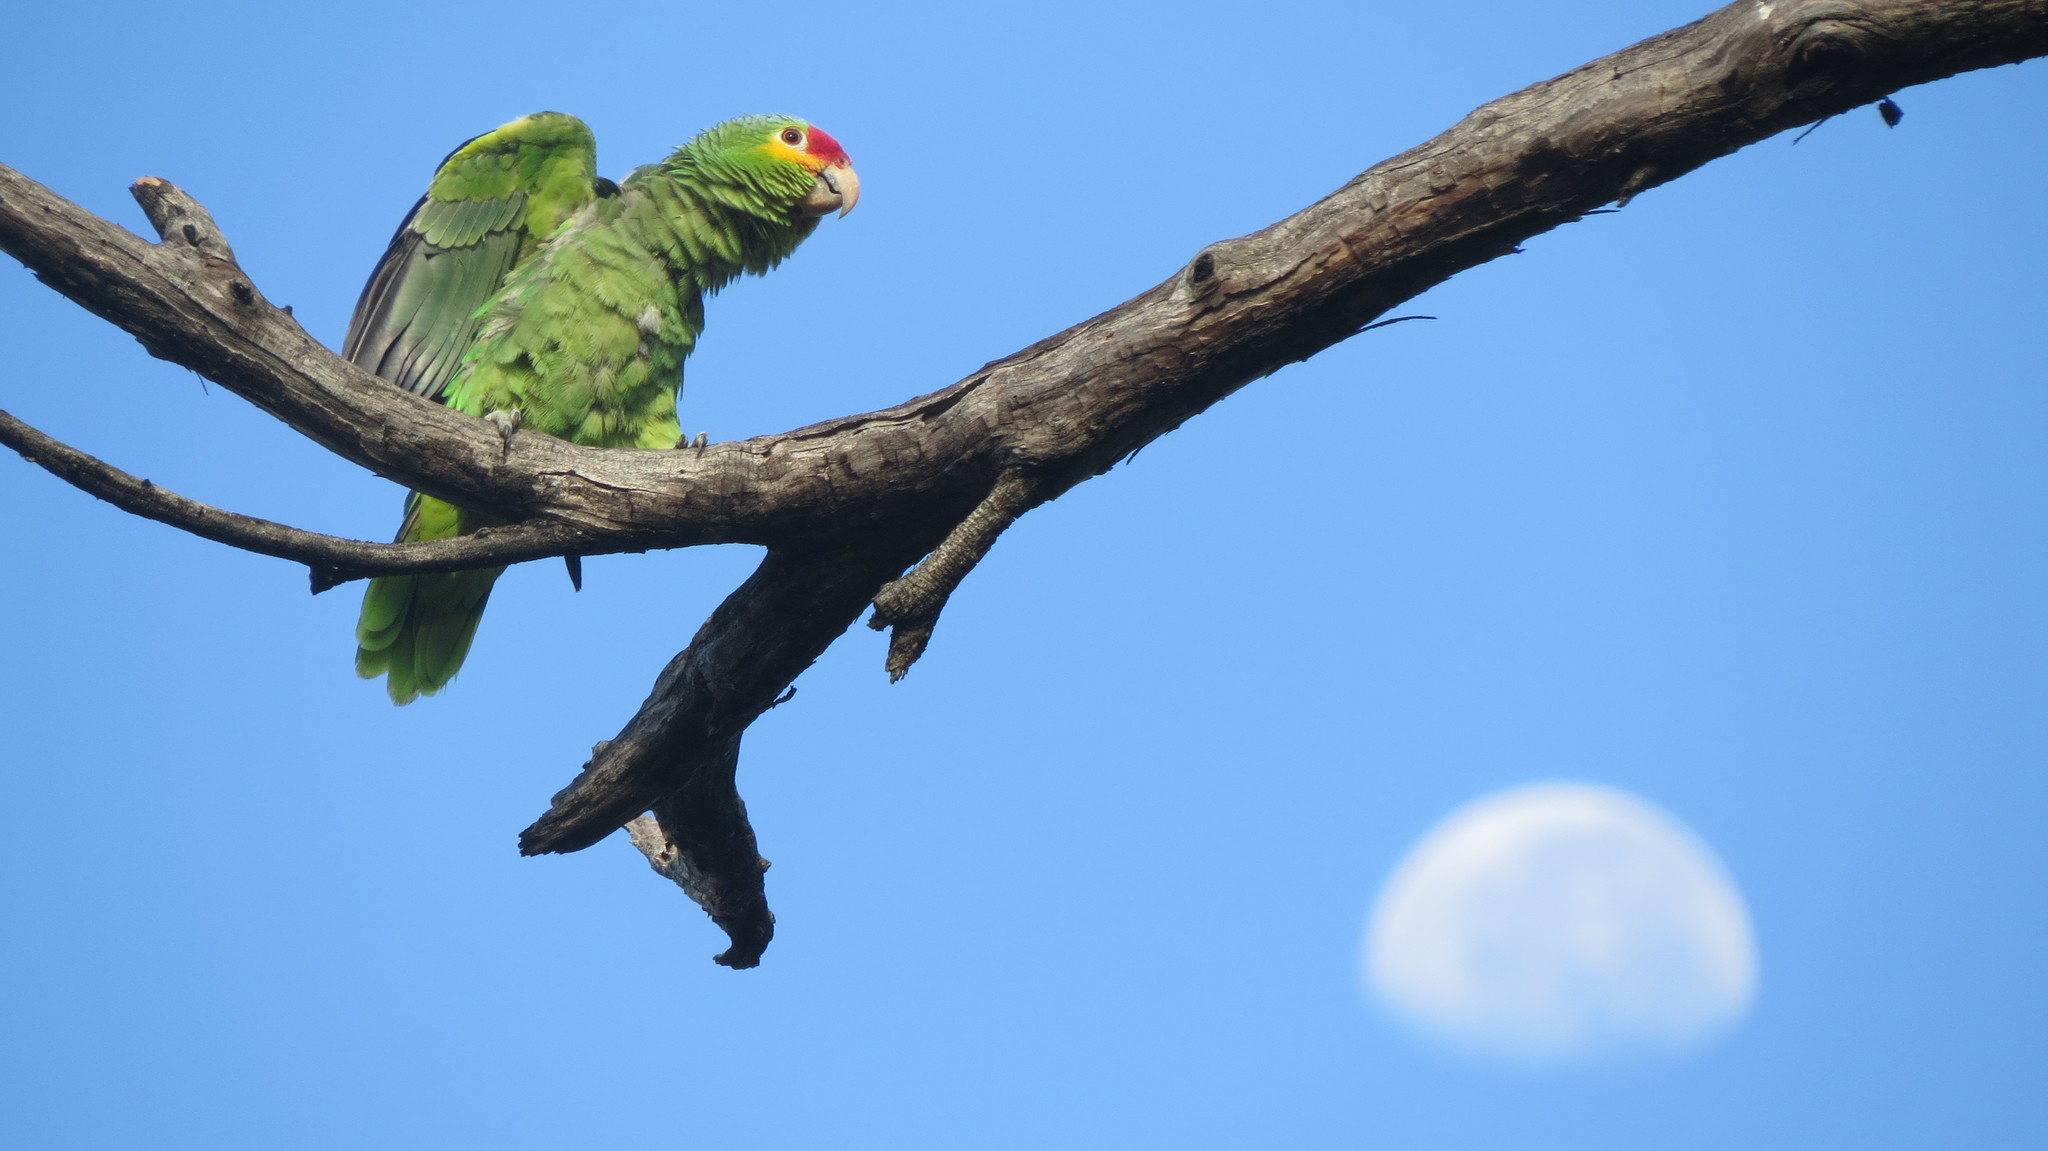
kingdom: Animalia
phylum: Chordata
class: Aves
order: Psittaciformes
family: Psittacidae
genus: Amazona
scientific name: Amazona autumnalis
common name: Red-lored amazon
